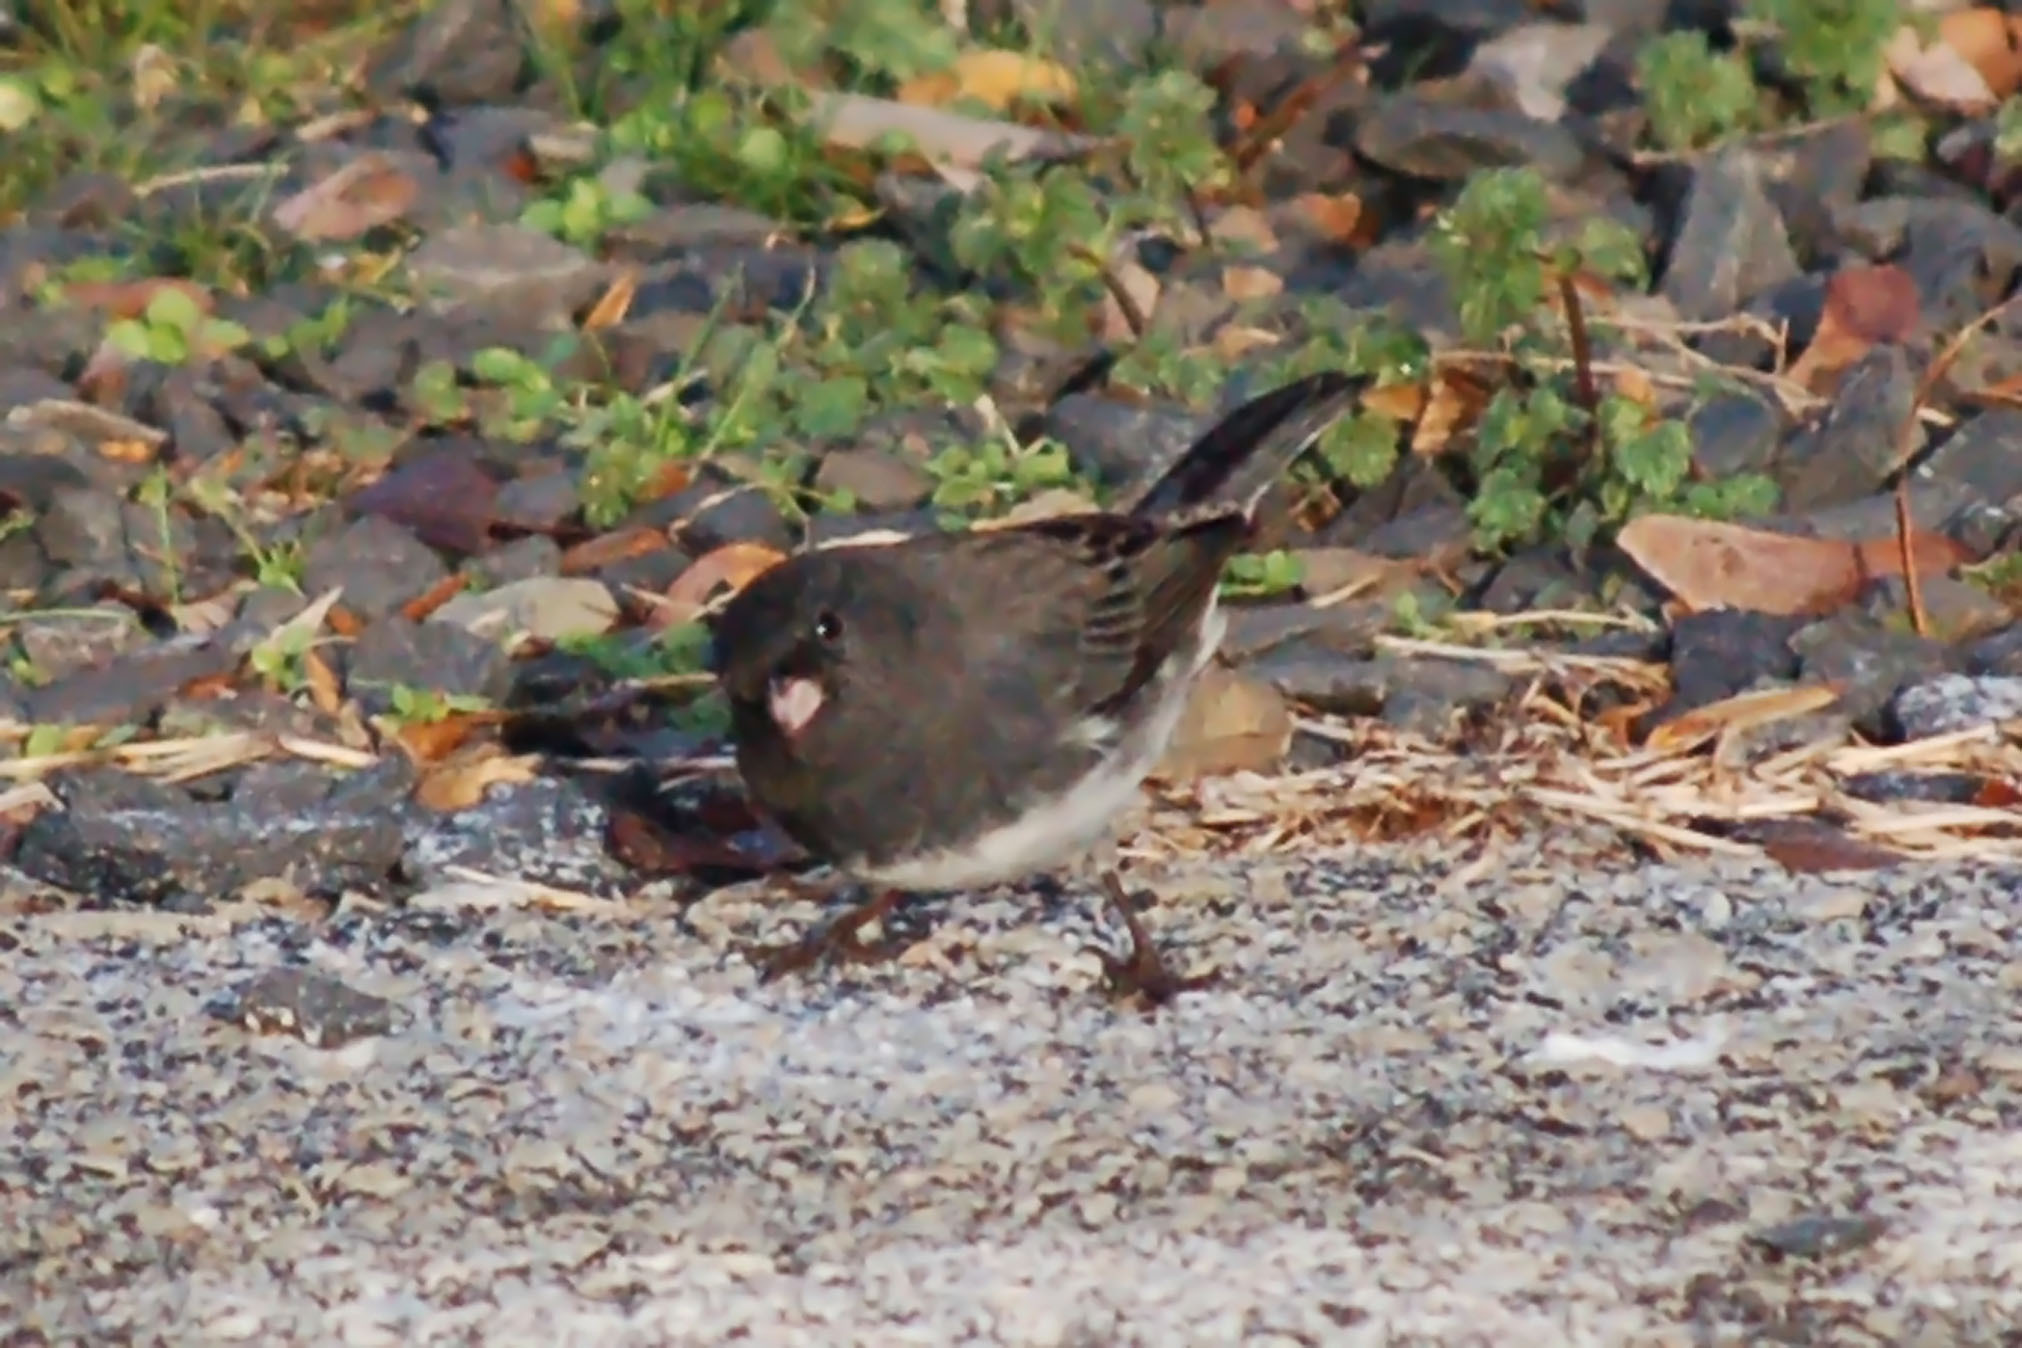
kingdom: Animalia
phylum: Chordata
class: Aves
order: Passeriformes
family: Passerellidae
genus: Junco
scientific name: Junco hyemalis
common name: Dark-eyed junco
